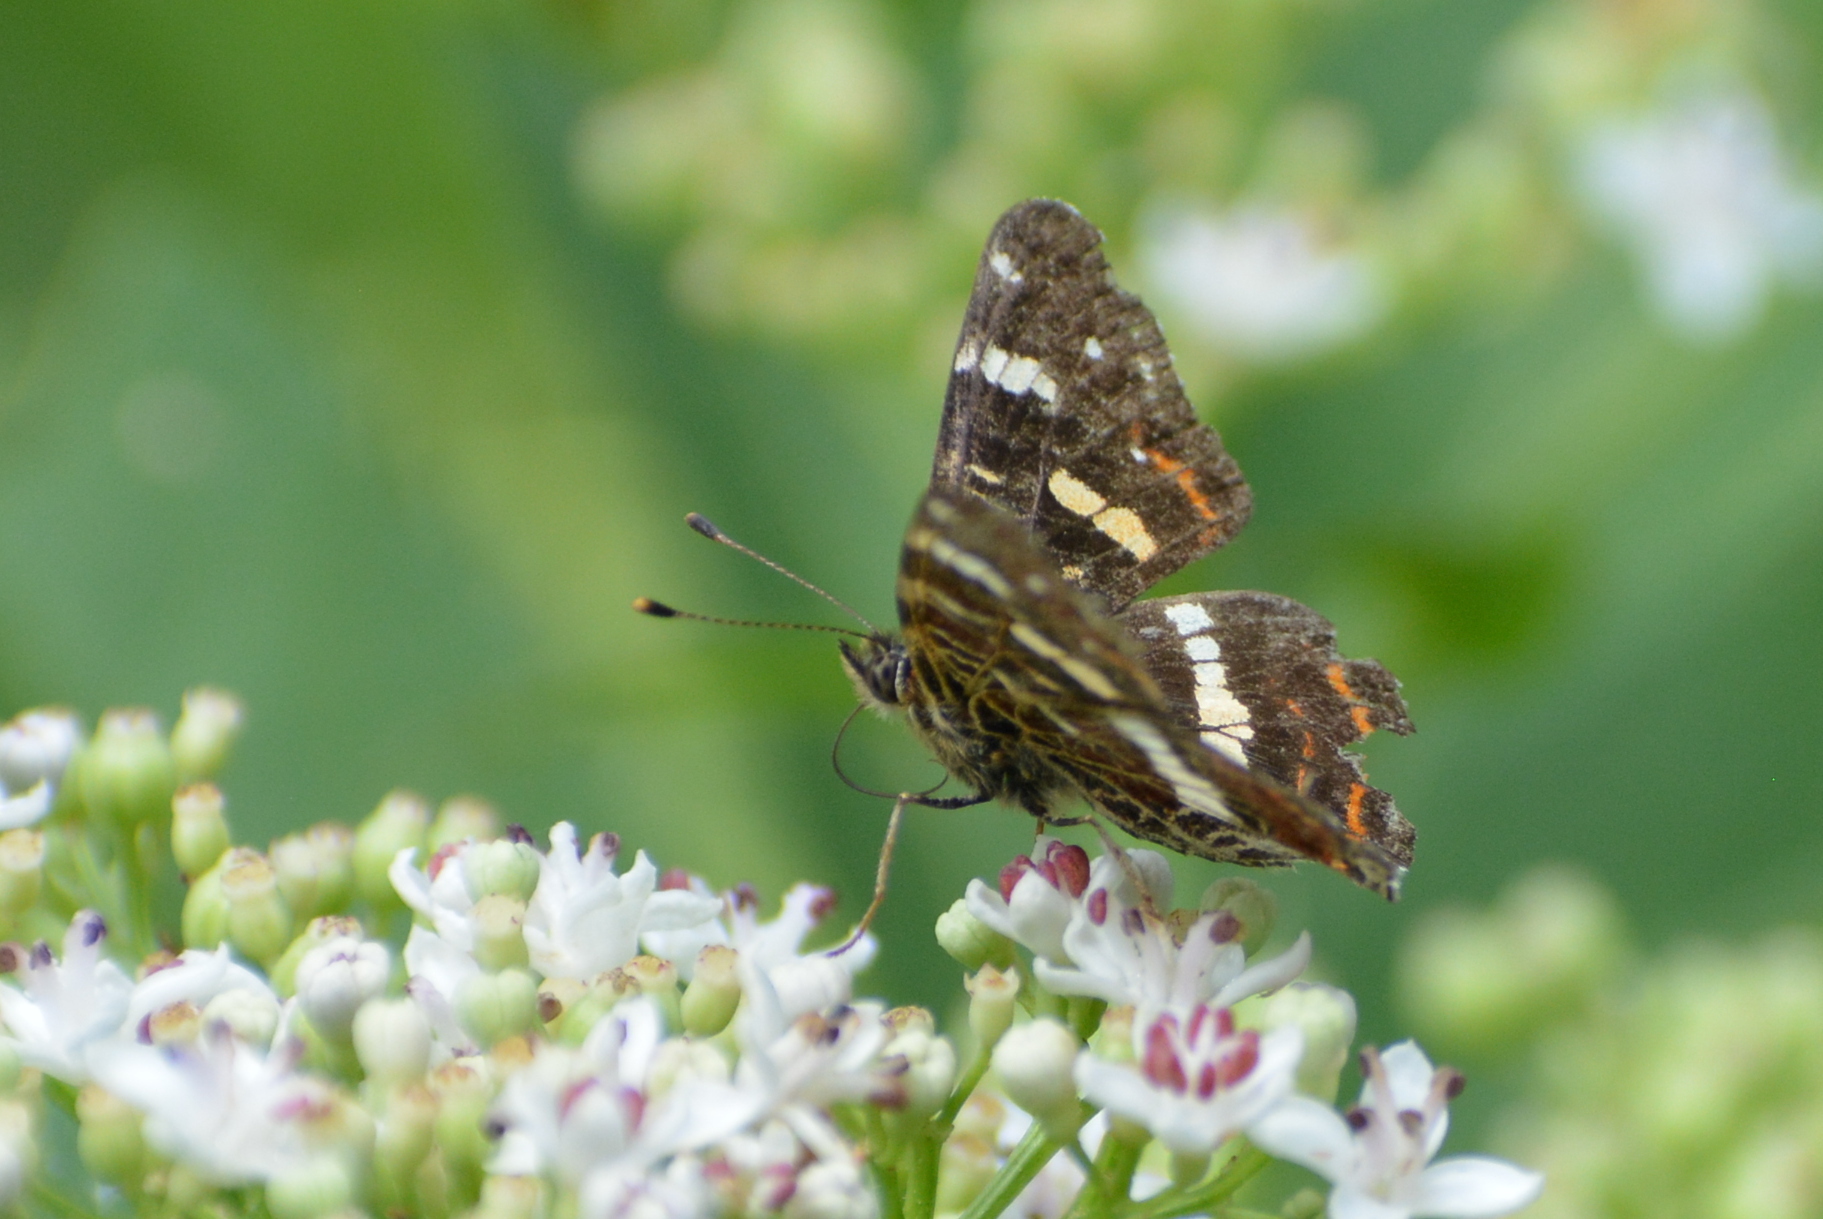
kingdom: Animalia
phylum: Arthropoda
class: Insecta
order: Lepidoptera
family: Nymphalidae
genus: Araschnia
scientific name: Araschnia levana
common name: Map butterfly
